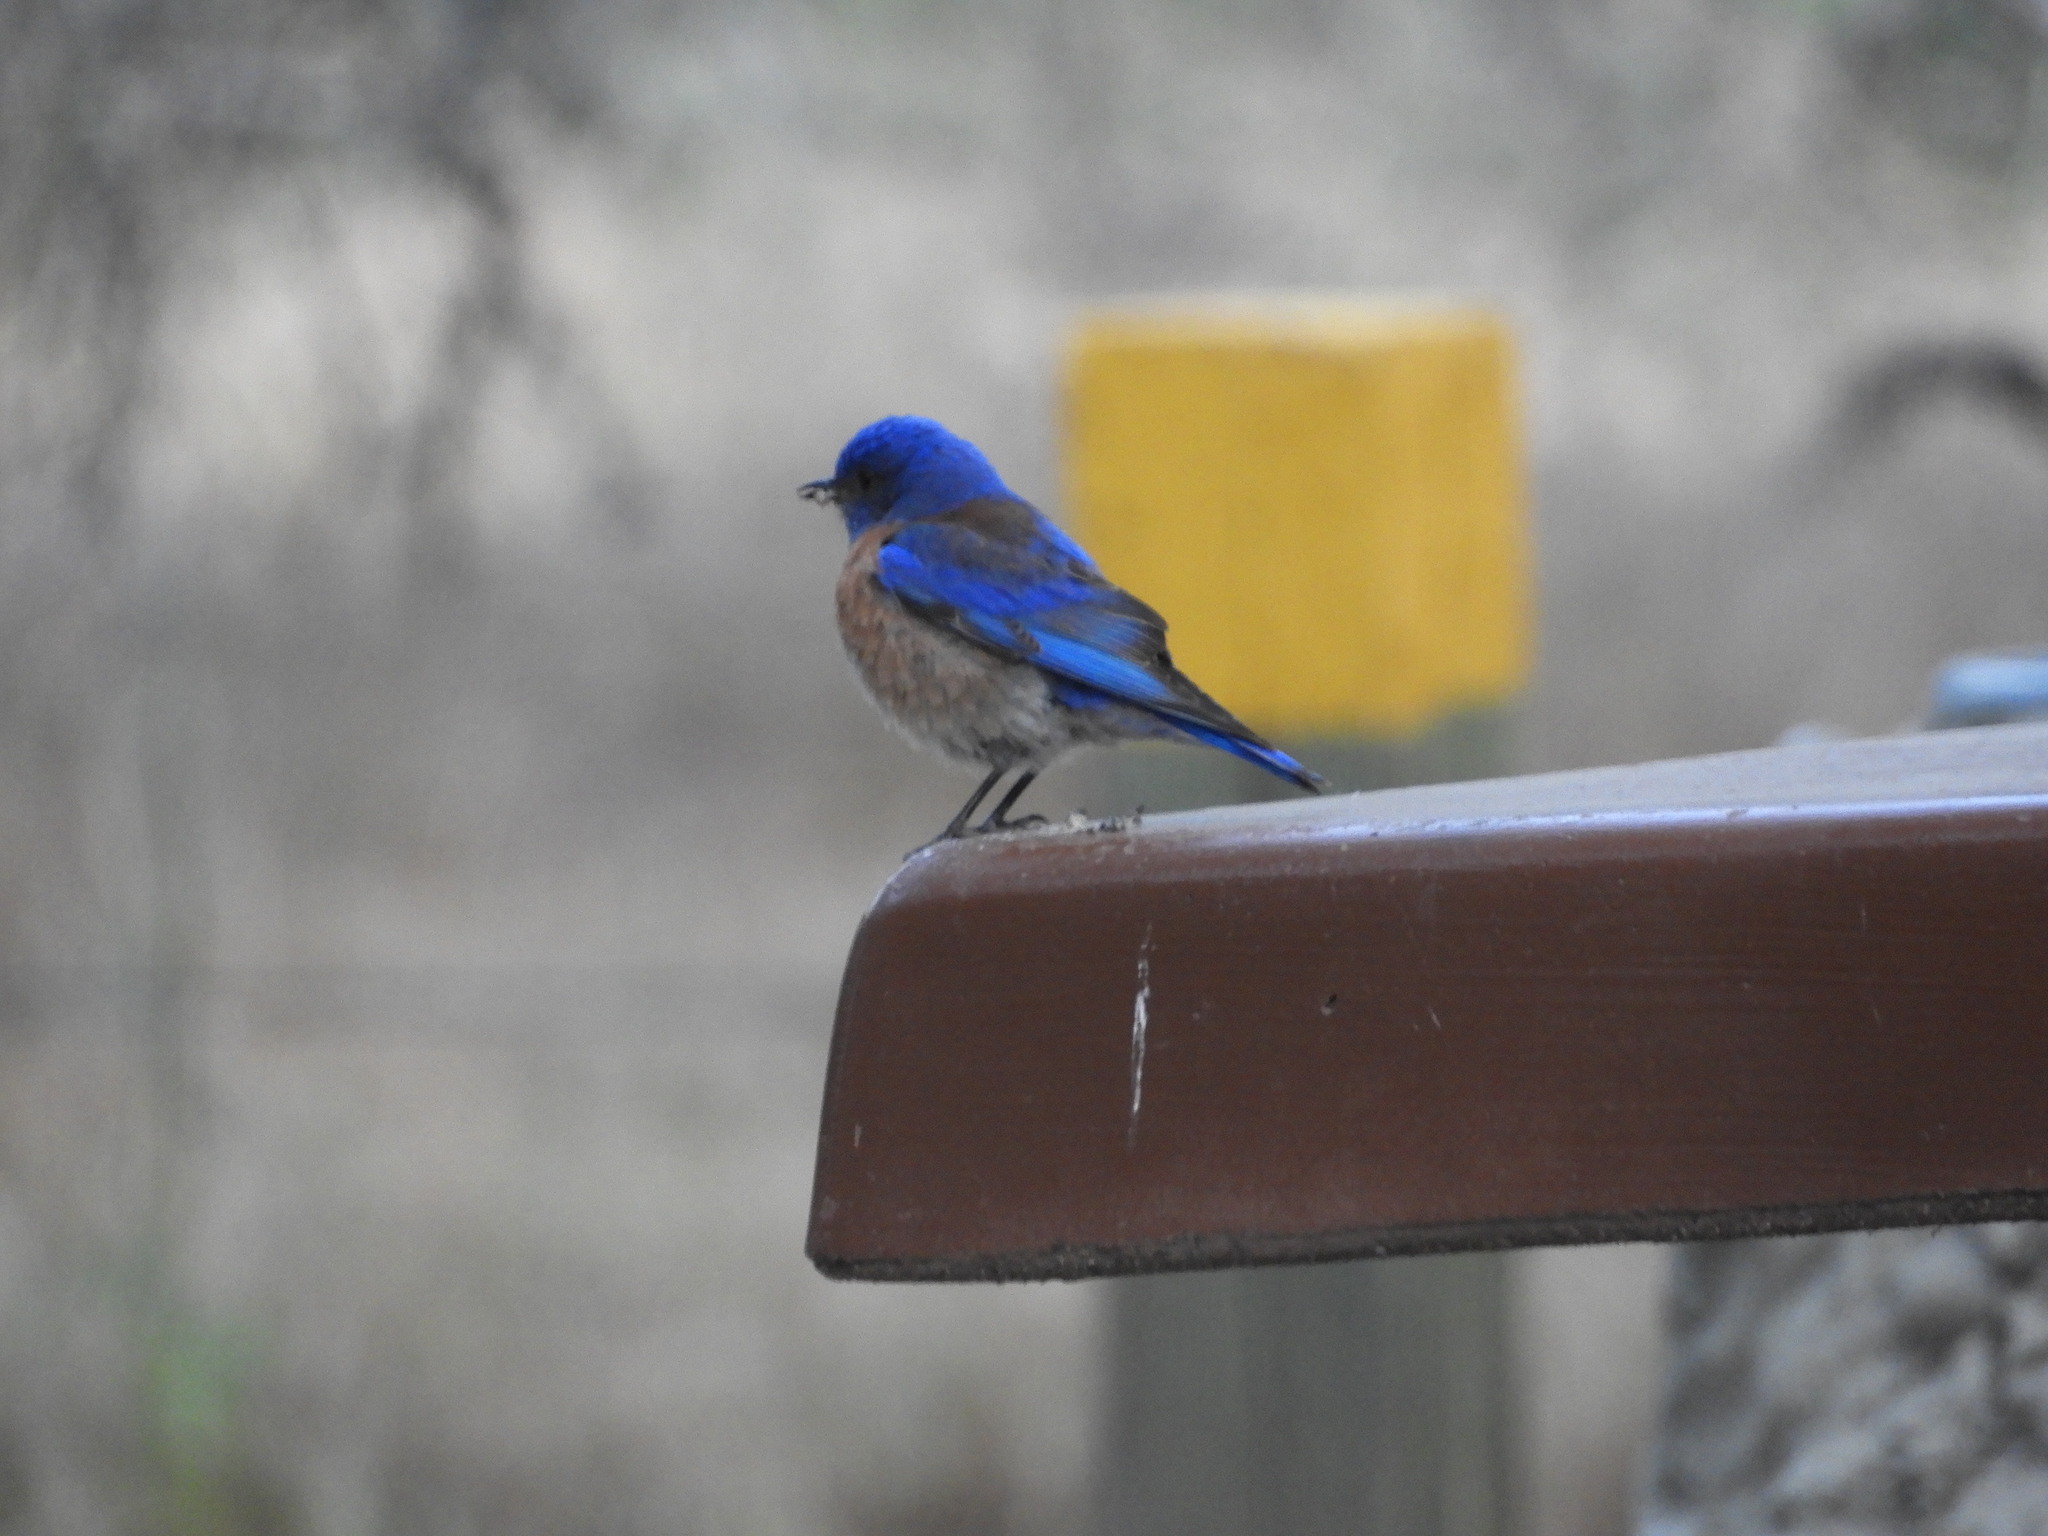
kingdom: Animalia
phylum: Chordata
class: Aves
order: Passeriformes
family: Turdidae
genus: Sialia
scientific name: Sialia mexicana
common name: Western bluebird
